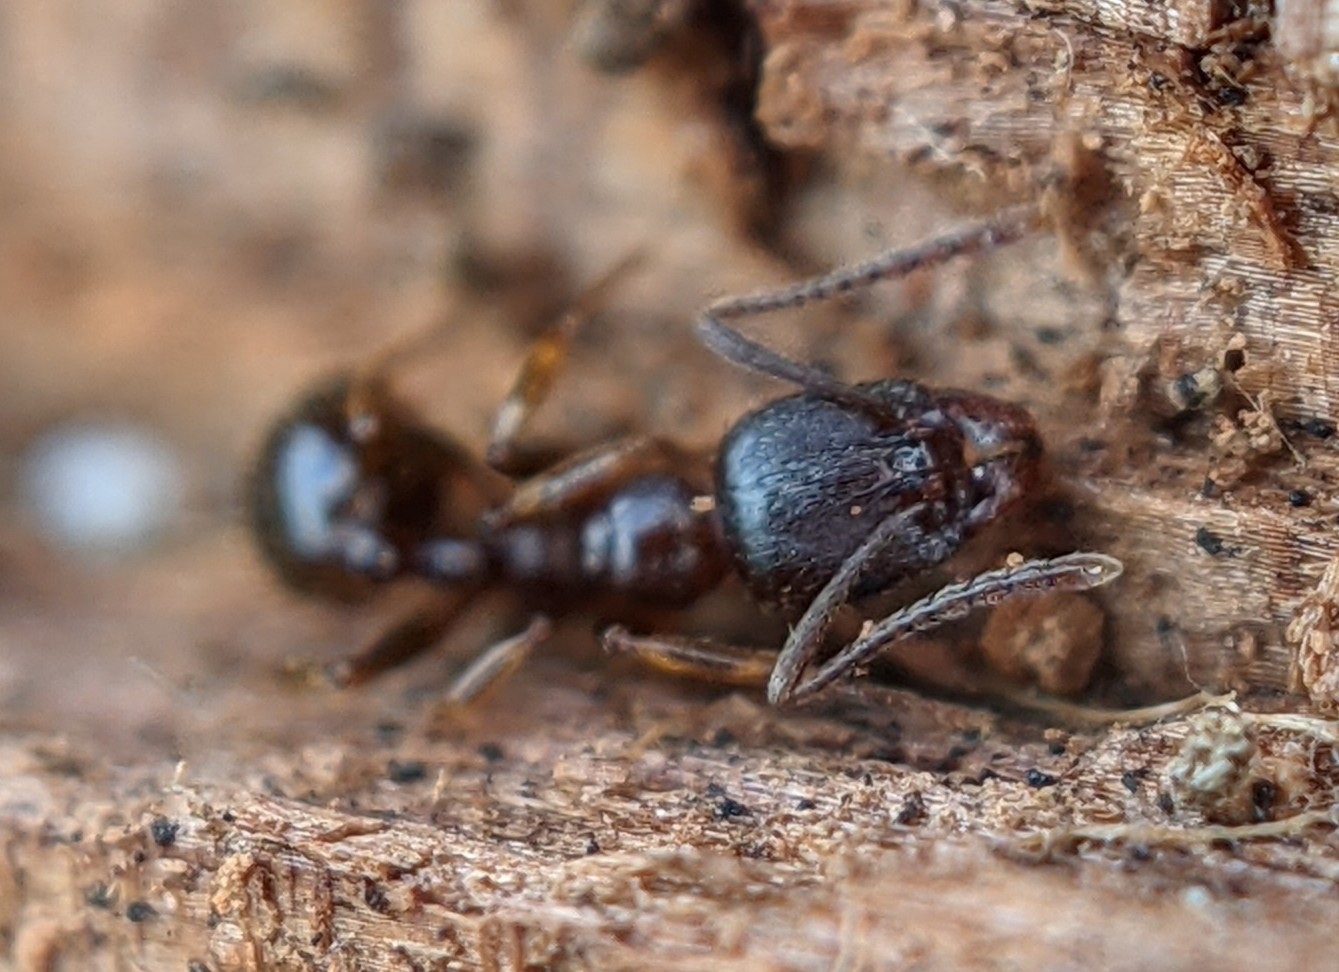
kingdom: Animalia
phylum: Arthropoda
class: Insecta
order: Hymenoptera
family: Formicidae
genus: Aphaenogaster
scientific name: Aphaenogaster occidentalis
